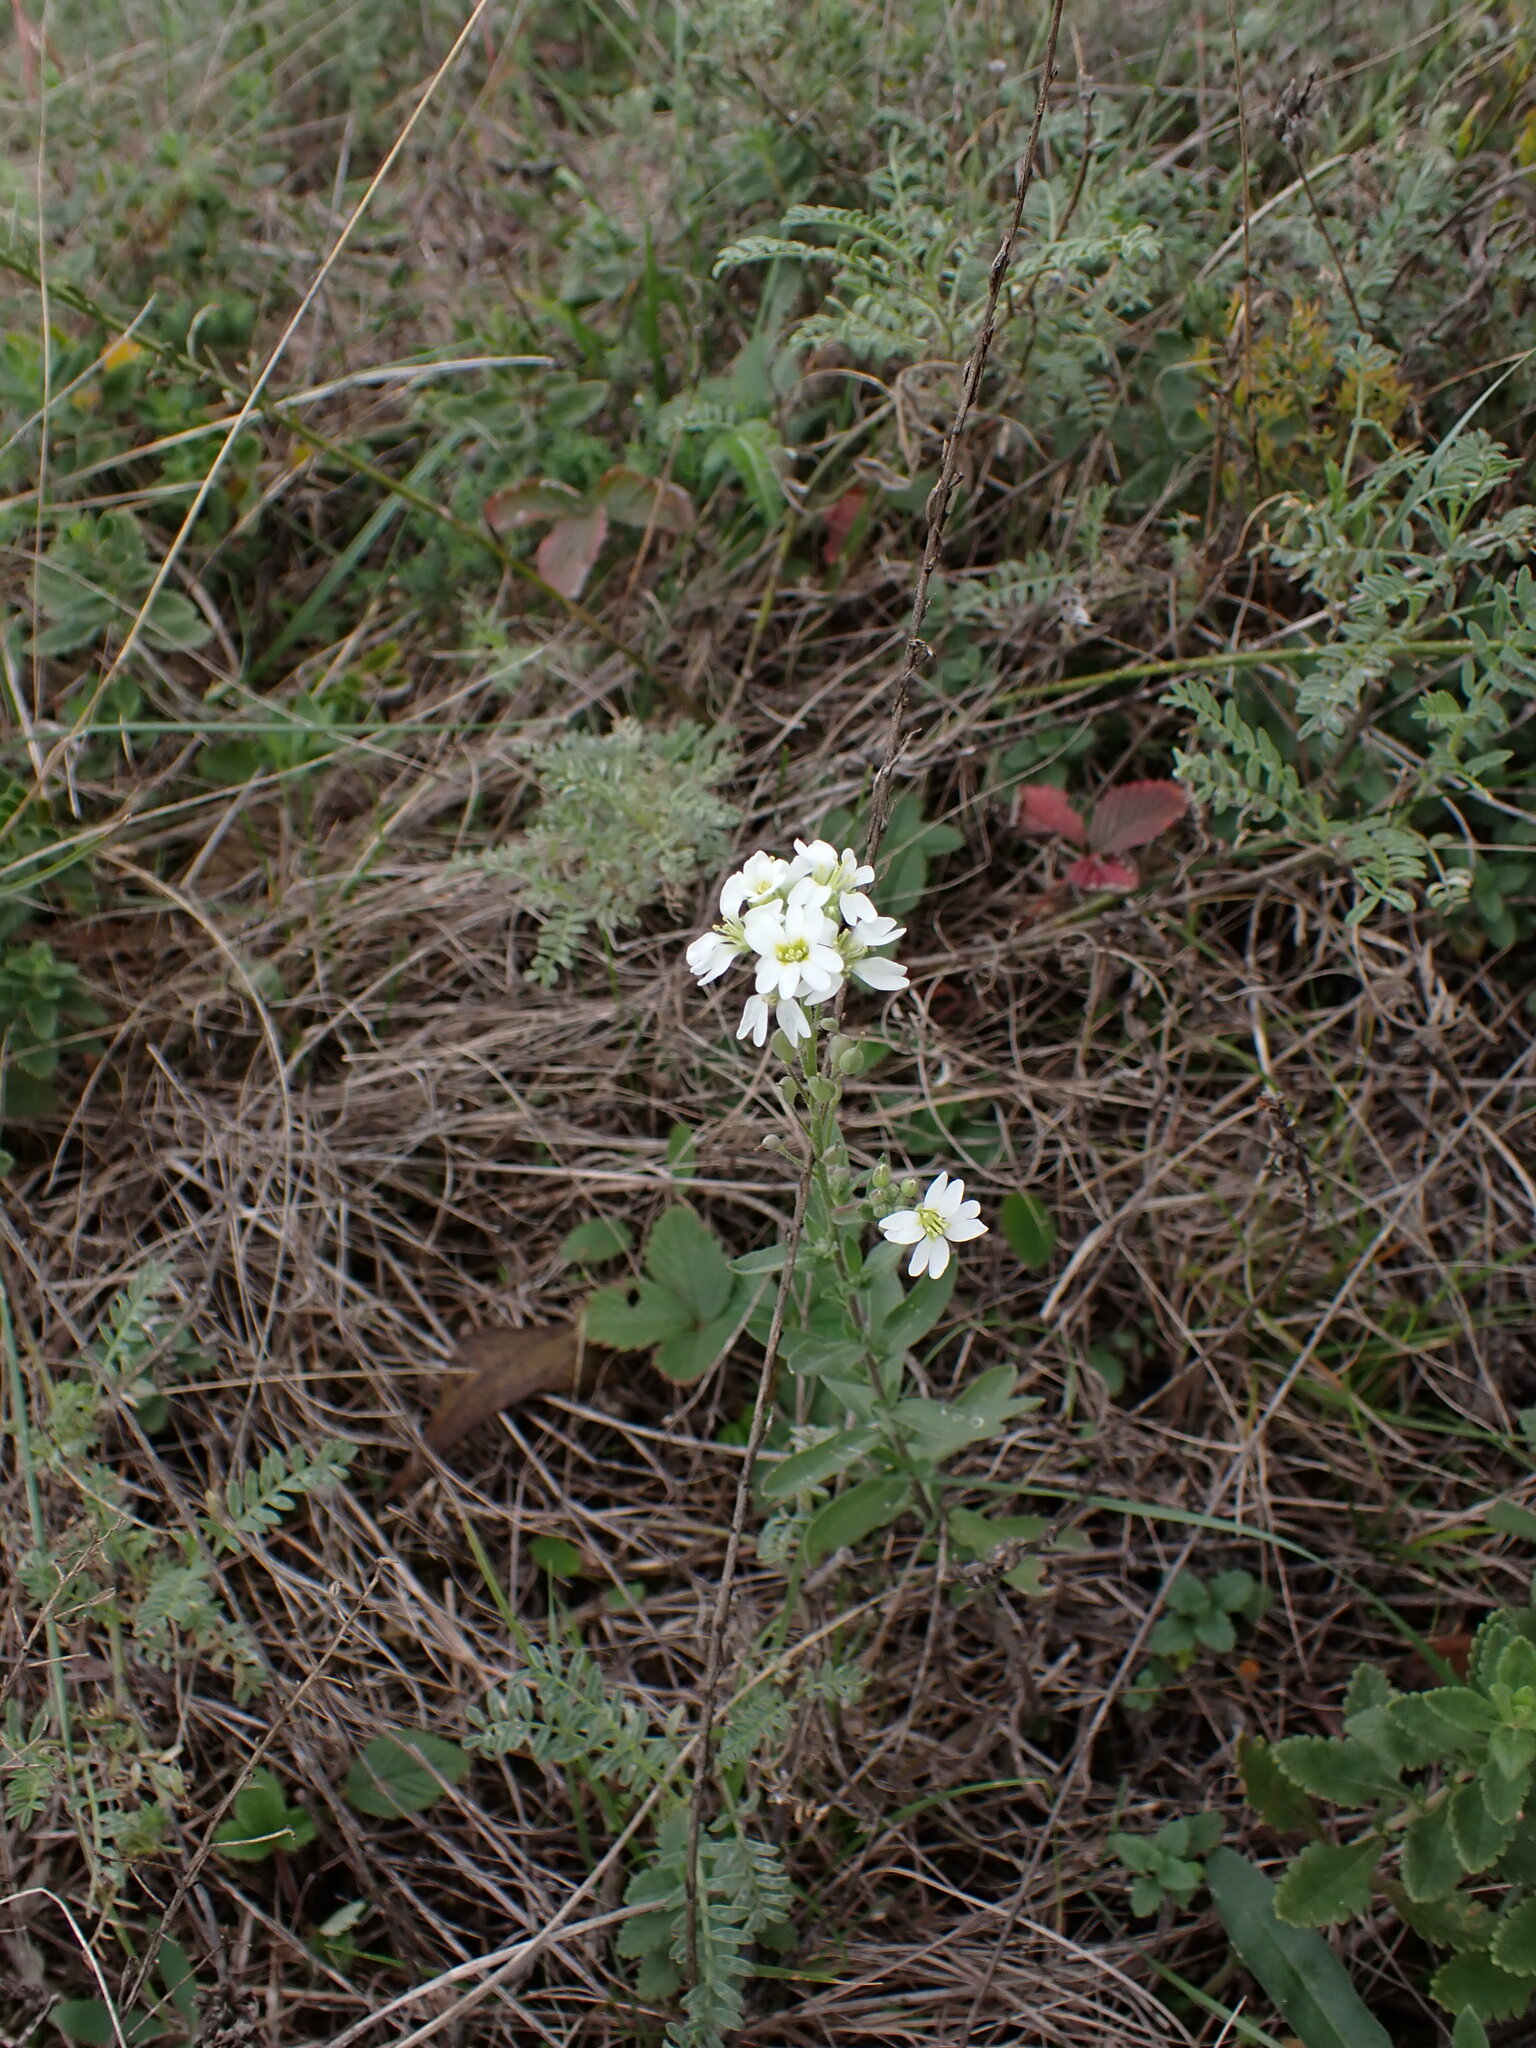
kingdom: Plantae
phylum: Tracheophyta
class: Magnoliopsida
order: Brassicales
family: Brassicaceae
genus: Berteroa
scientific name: Berteroa incana
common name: Hoary alison
